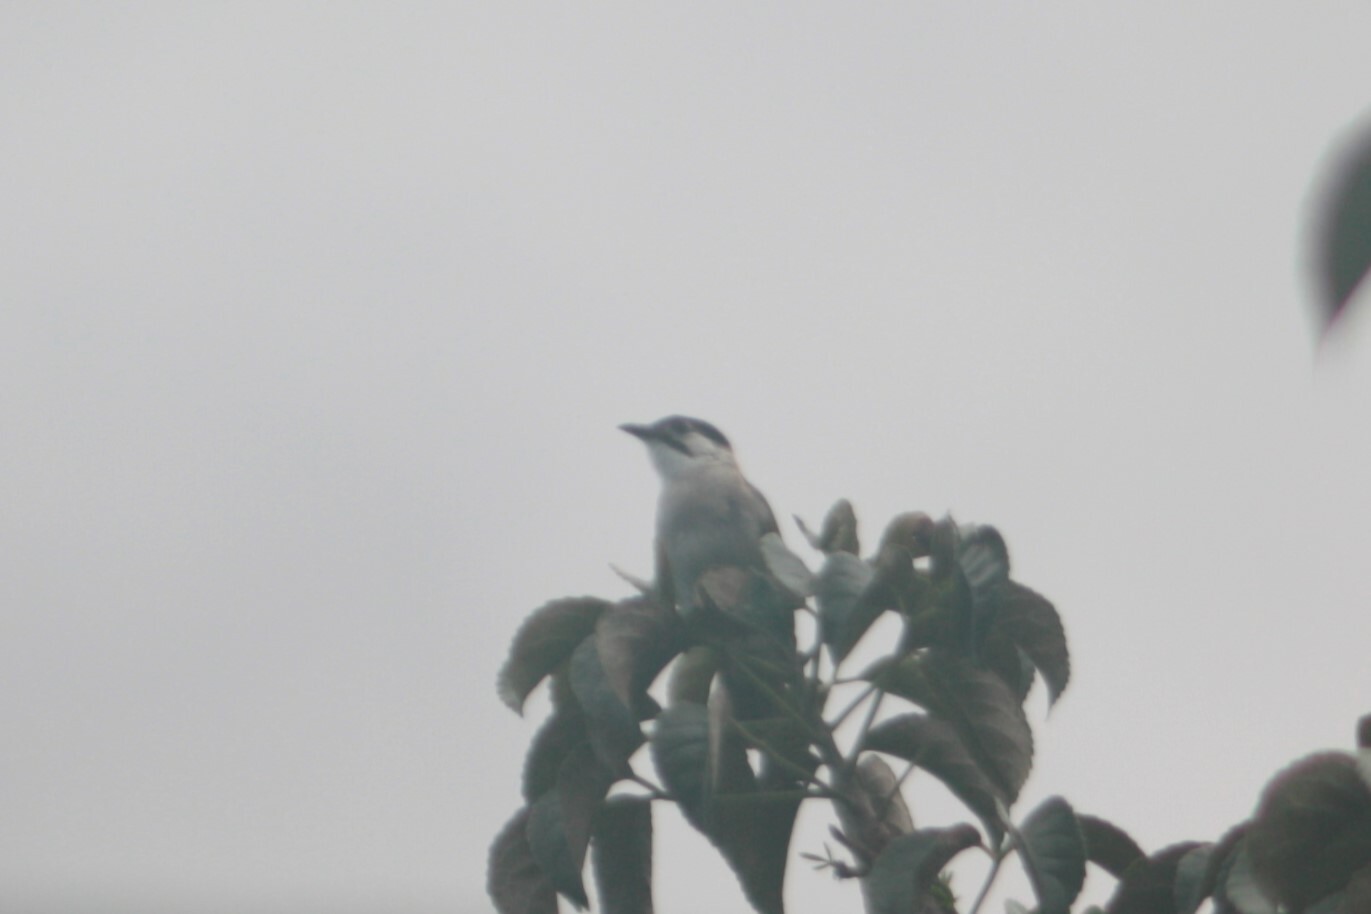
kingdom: Animalia
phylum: Chordata
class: Aves
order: Passeriformes
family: Pycnonotidae
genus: Pycnonotus
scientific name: Pycnonotus taivanus
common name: Styan's bulbul
